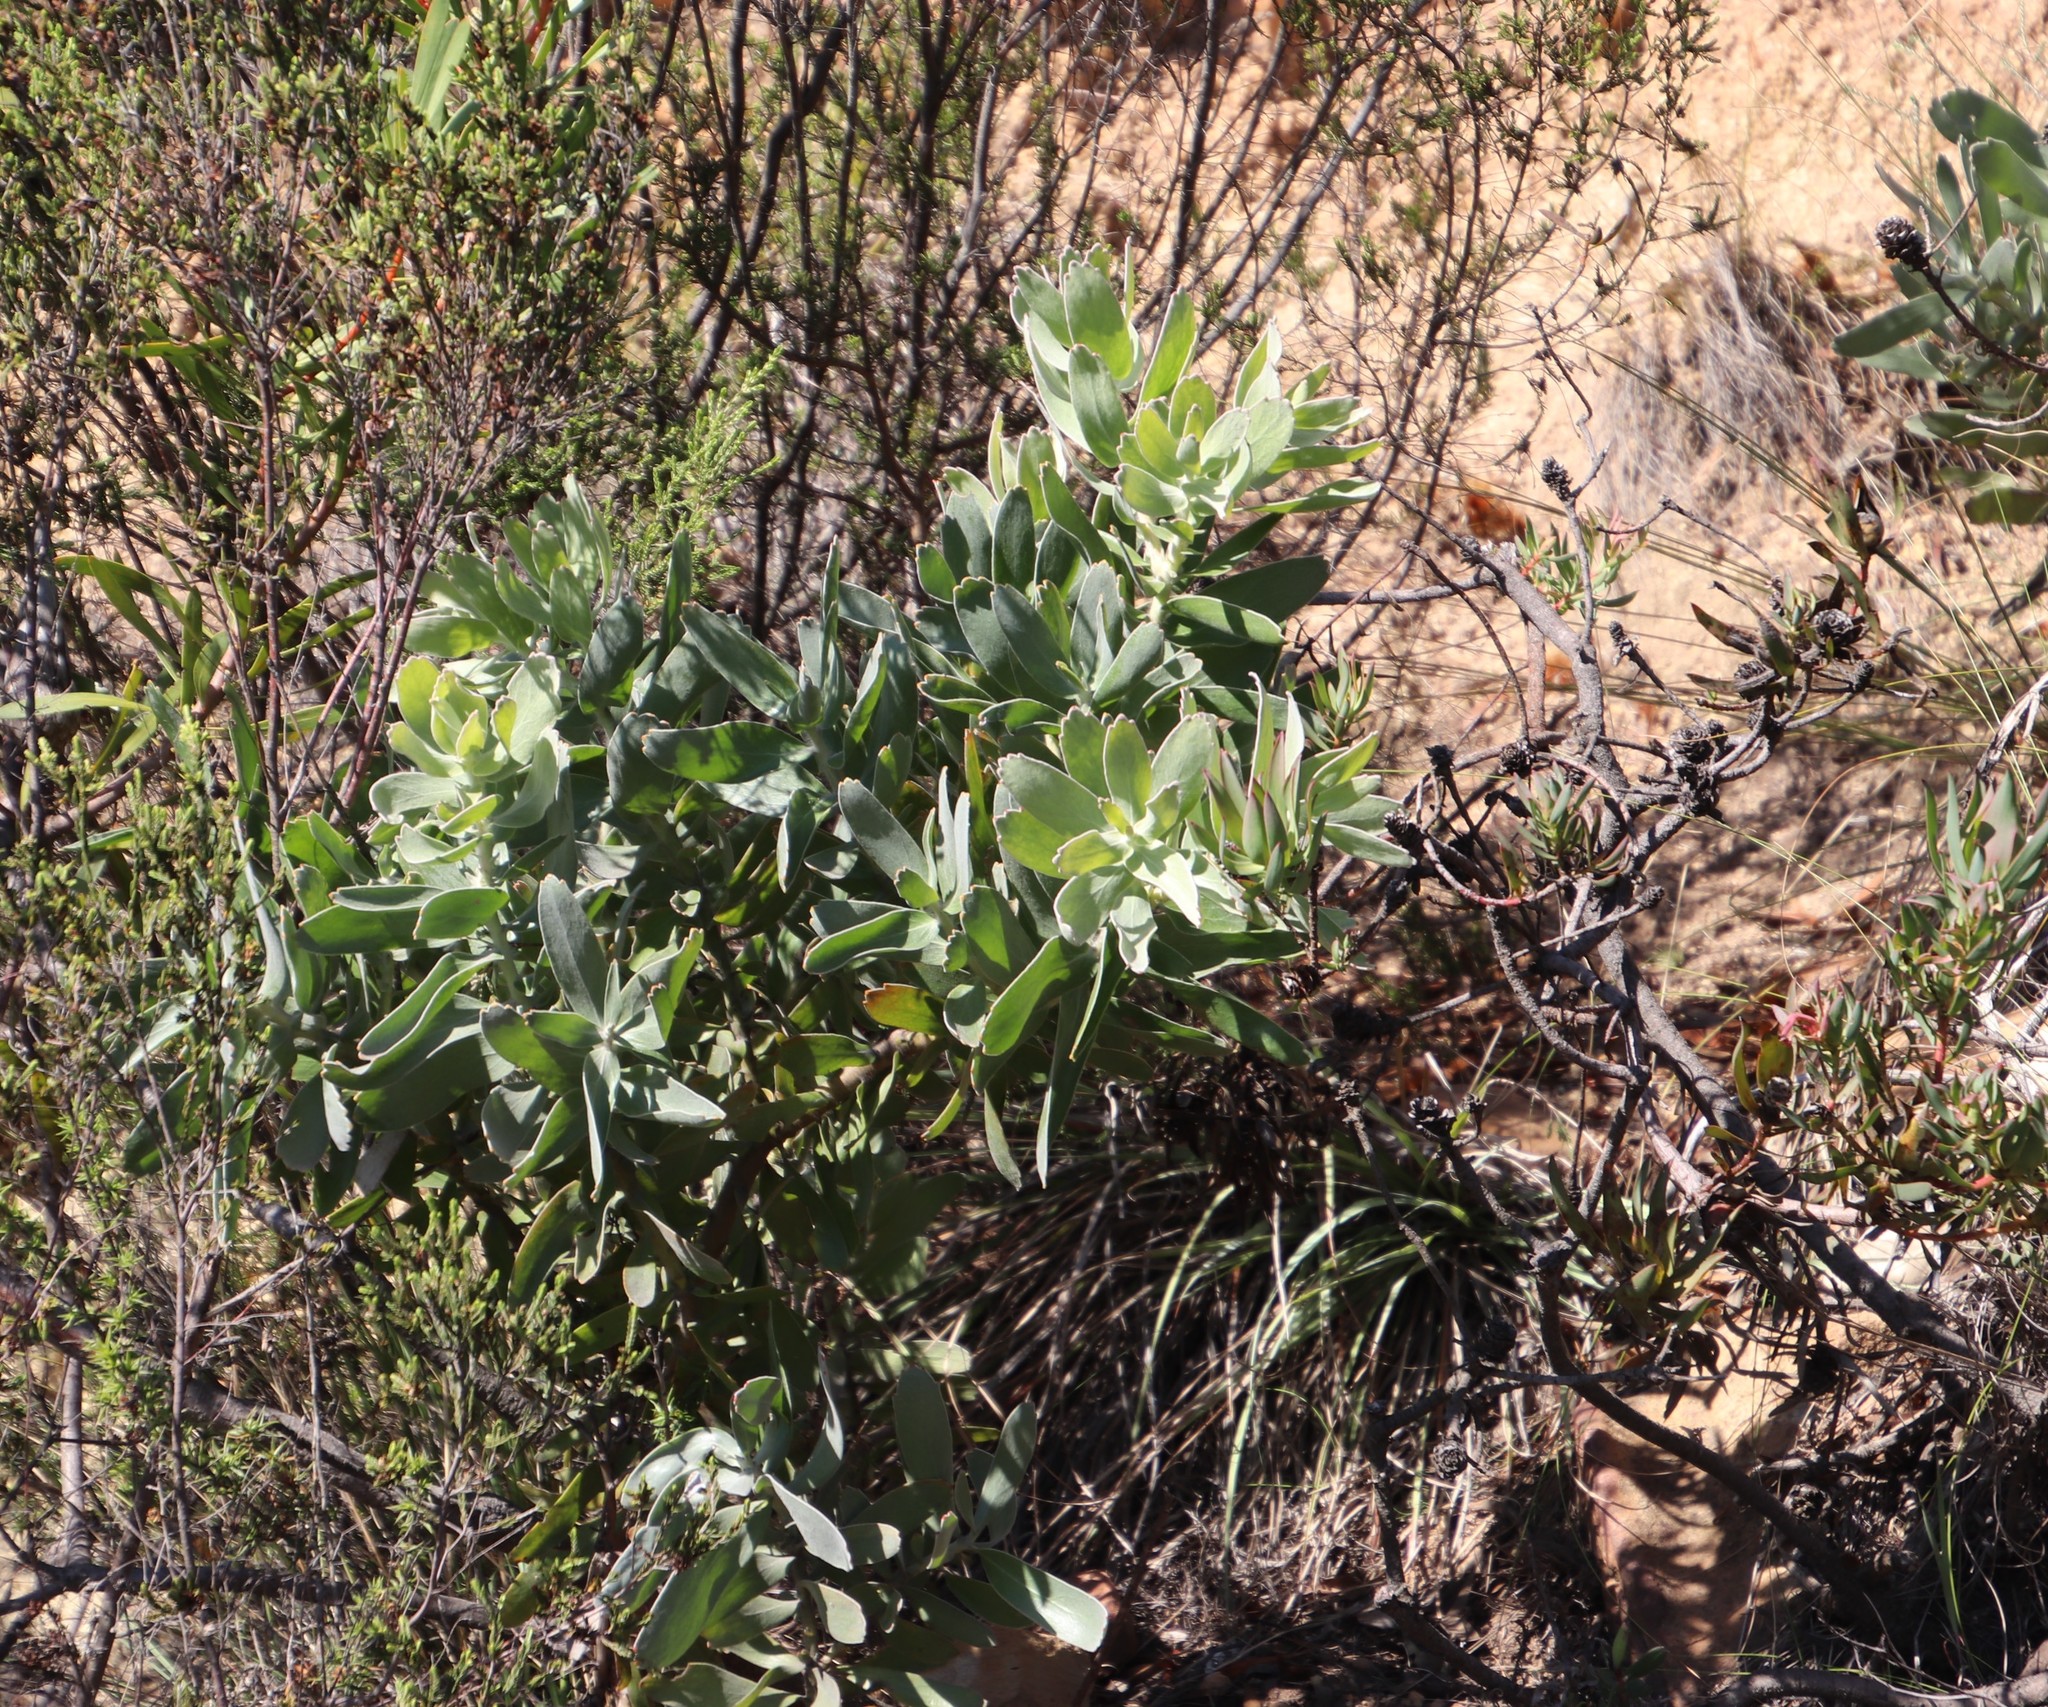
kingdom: Plantae
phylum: Tracheophyta
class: Magnoliopsida
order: Proteales
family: Proteaceae
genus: Leucospermum
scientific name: Leucospermum cordifolium
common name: Red pincushion-protea
